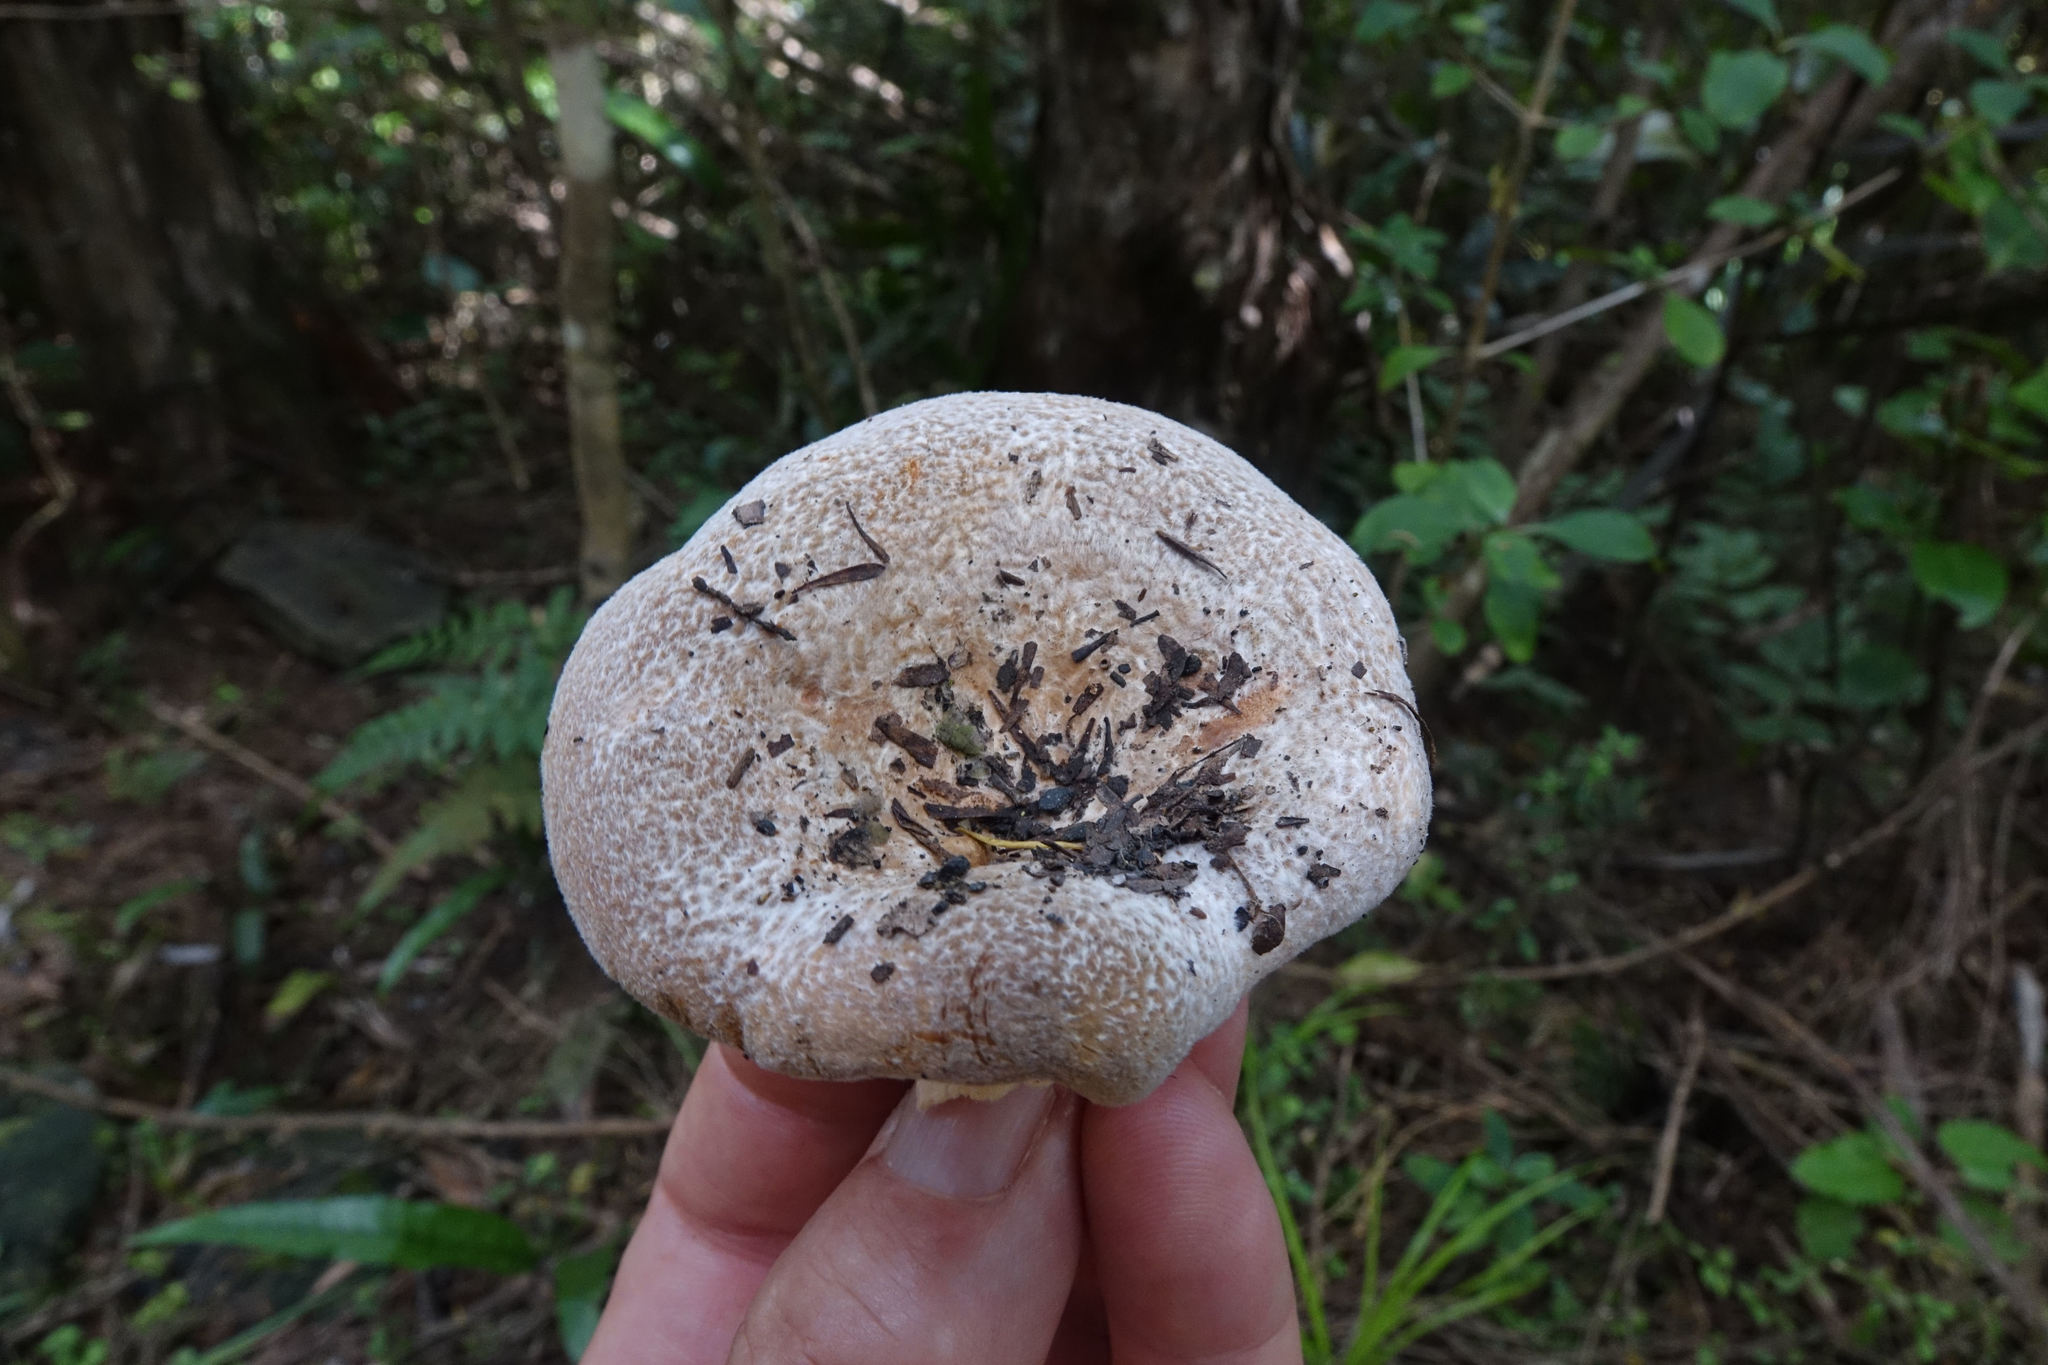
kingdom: Fungi
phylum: Basidiomycota
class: Agaricomycetes
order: Russulales
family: Russulaceae
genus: Lactifluus
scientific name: Lactifluus clarkeae
